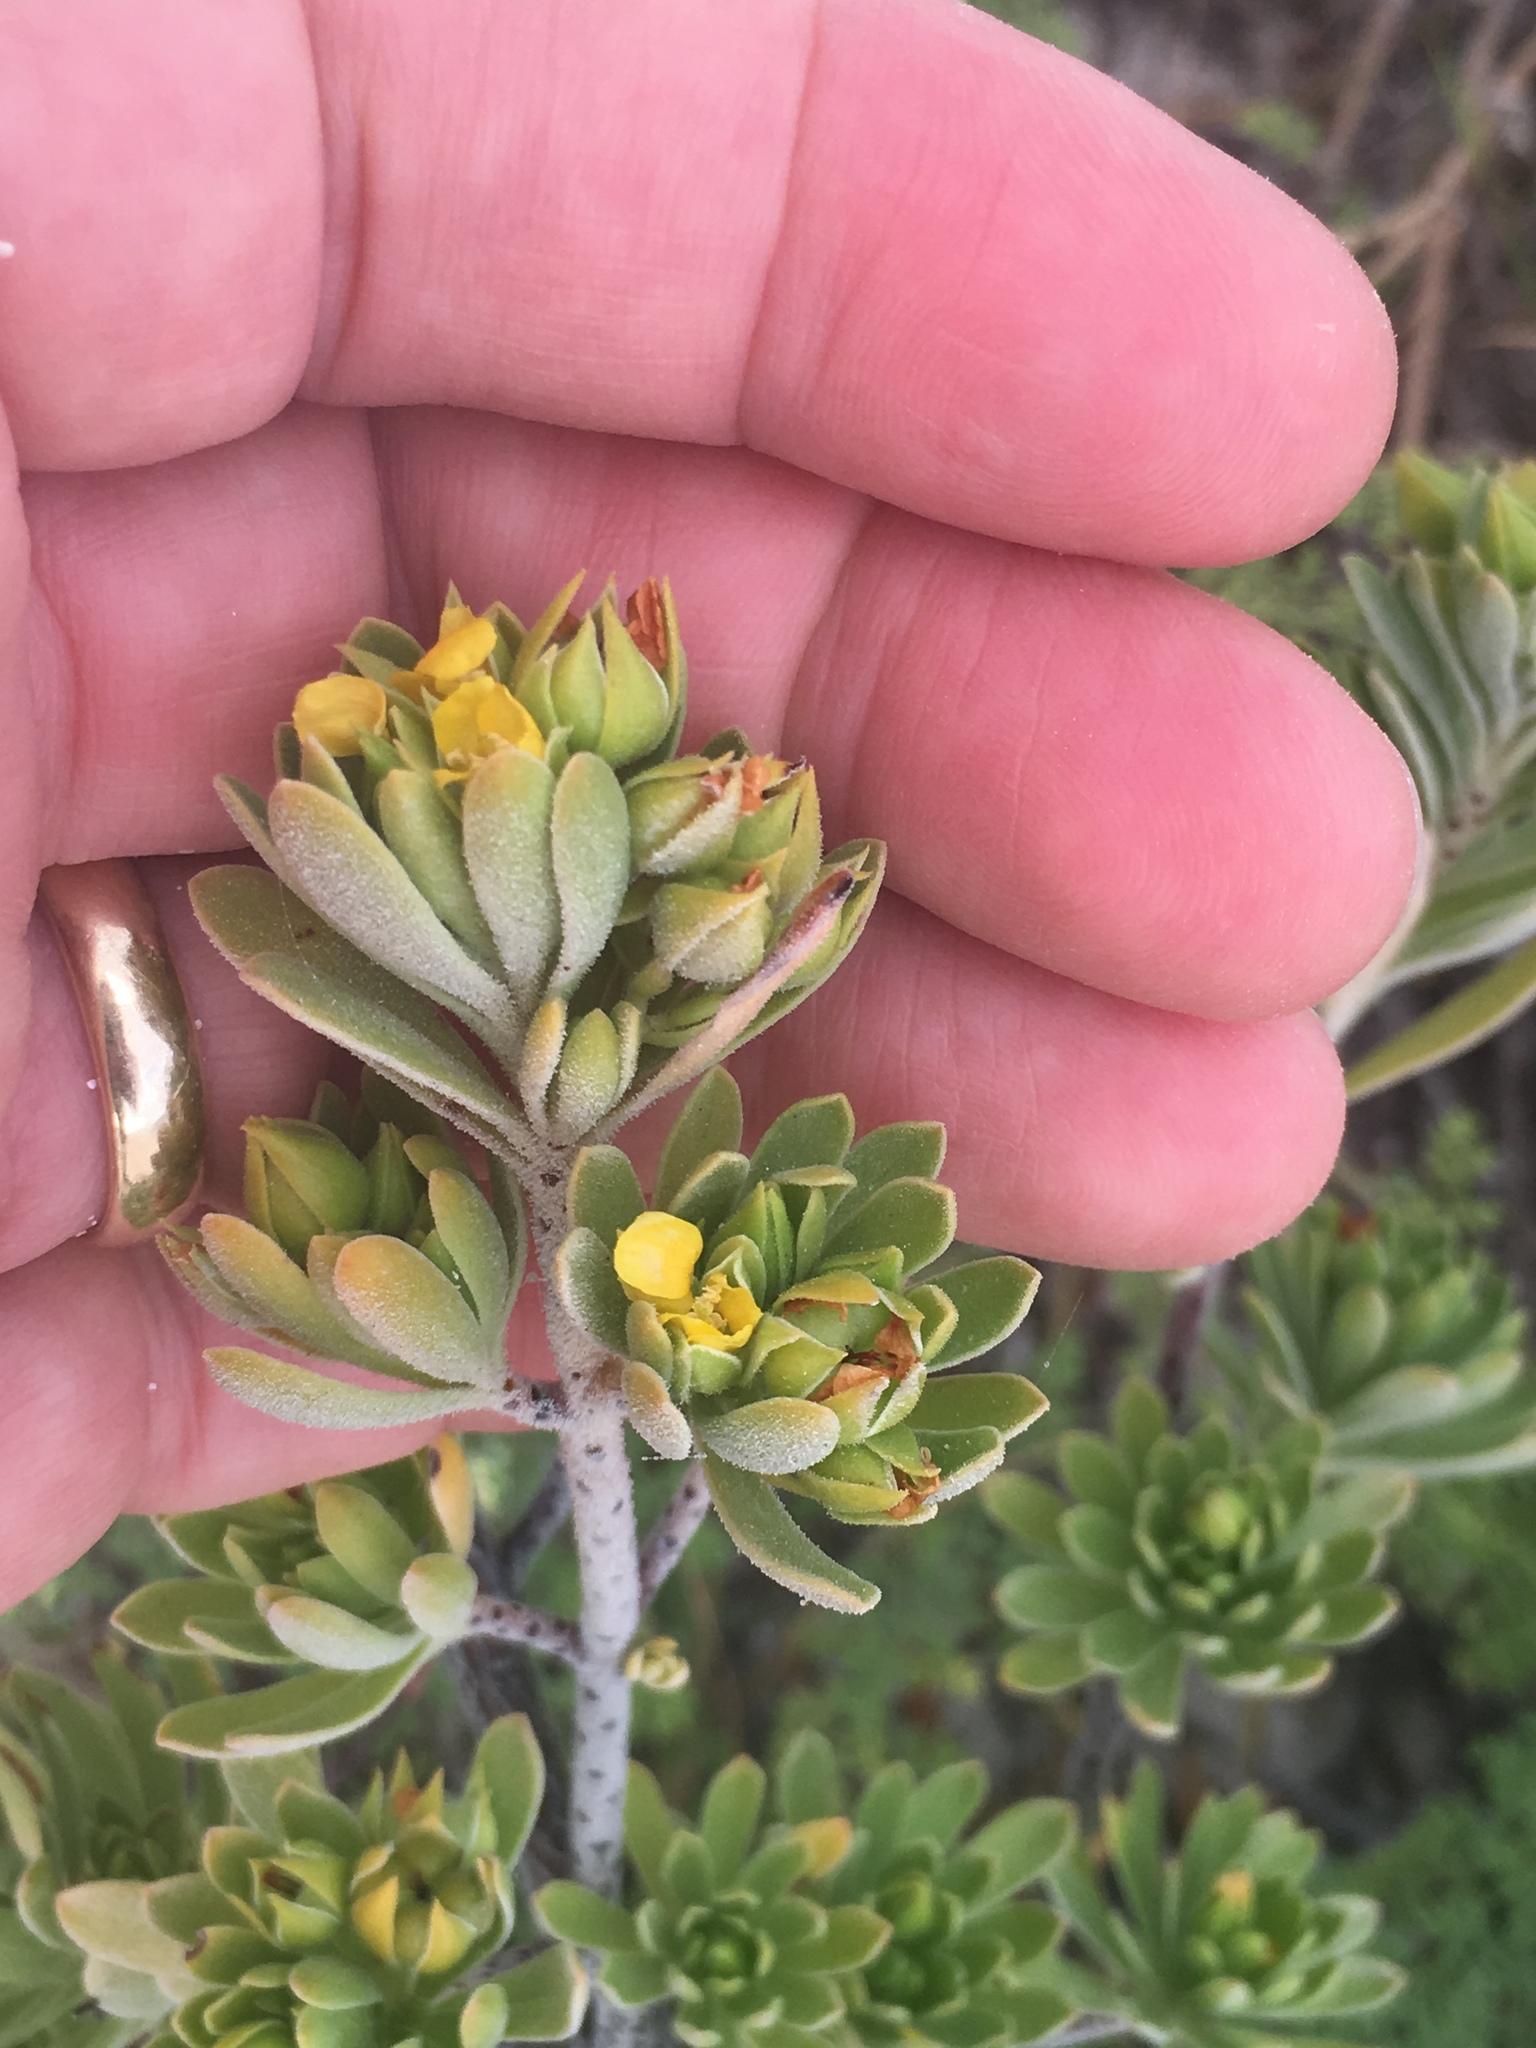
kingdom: Plantae
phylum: Tracheophyta
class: Magnoliopsida
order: Fabales
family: Surianaceae
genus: Suriana
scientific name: Suriana maritima
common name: Bay-cedar
